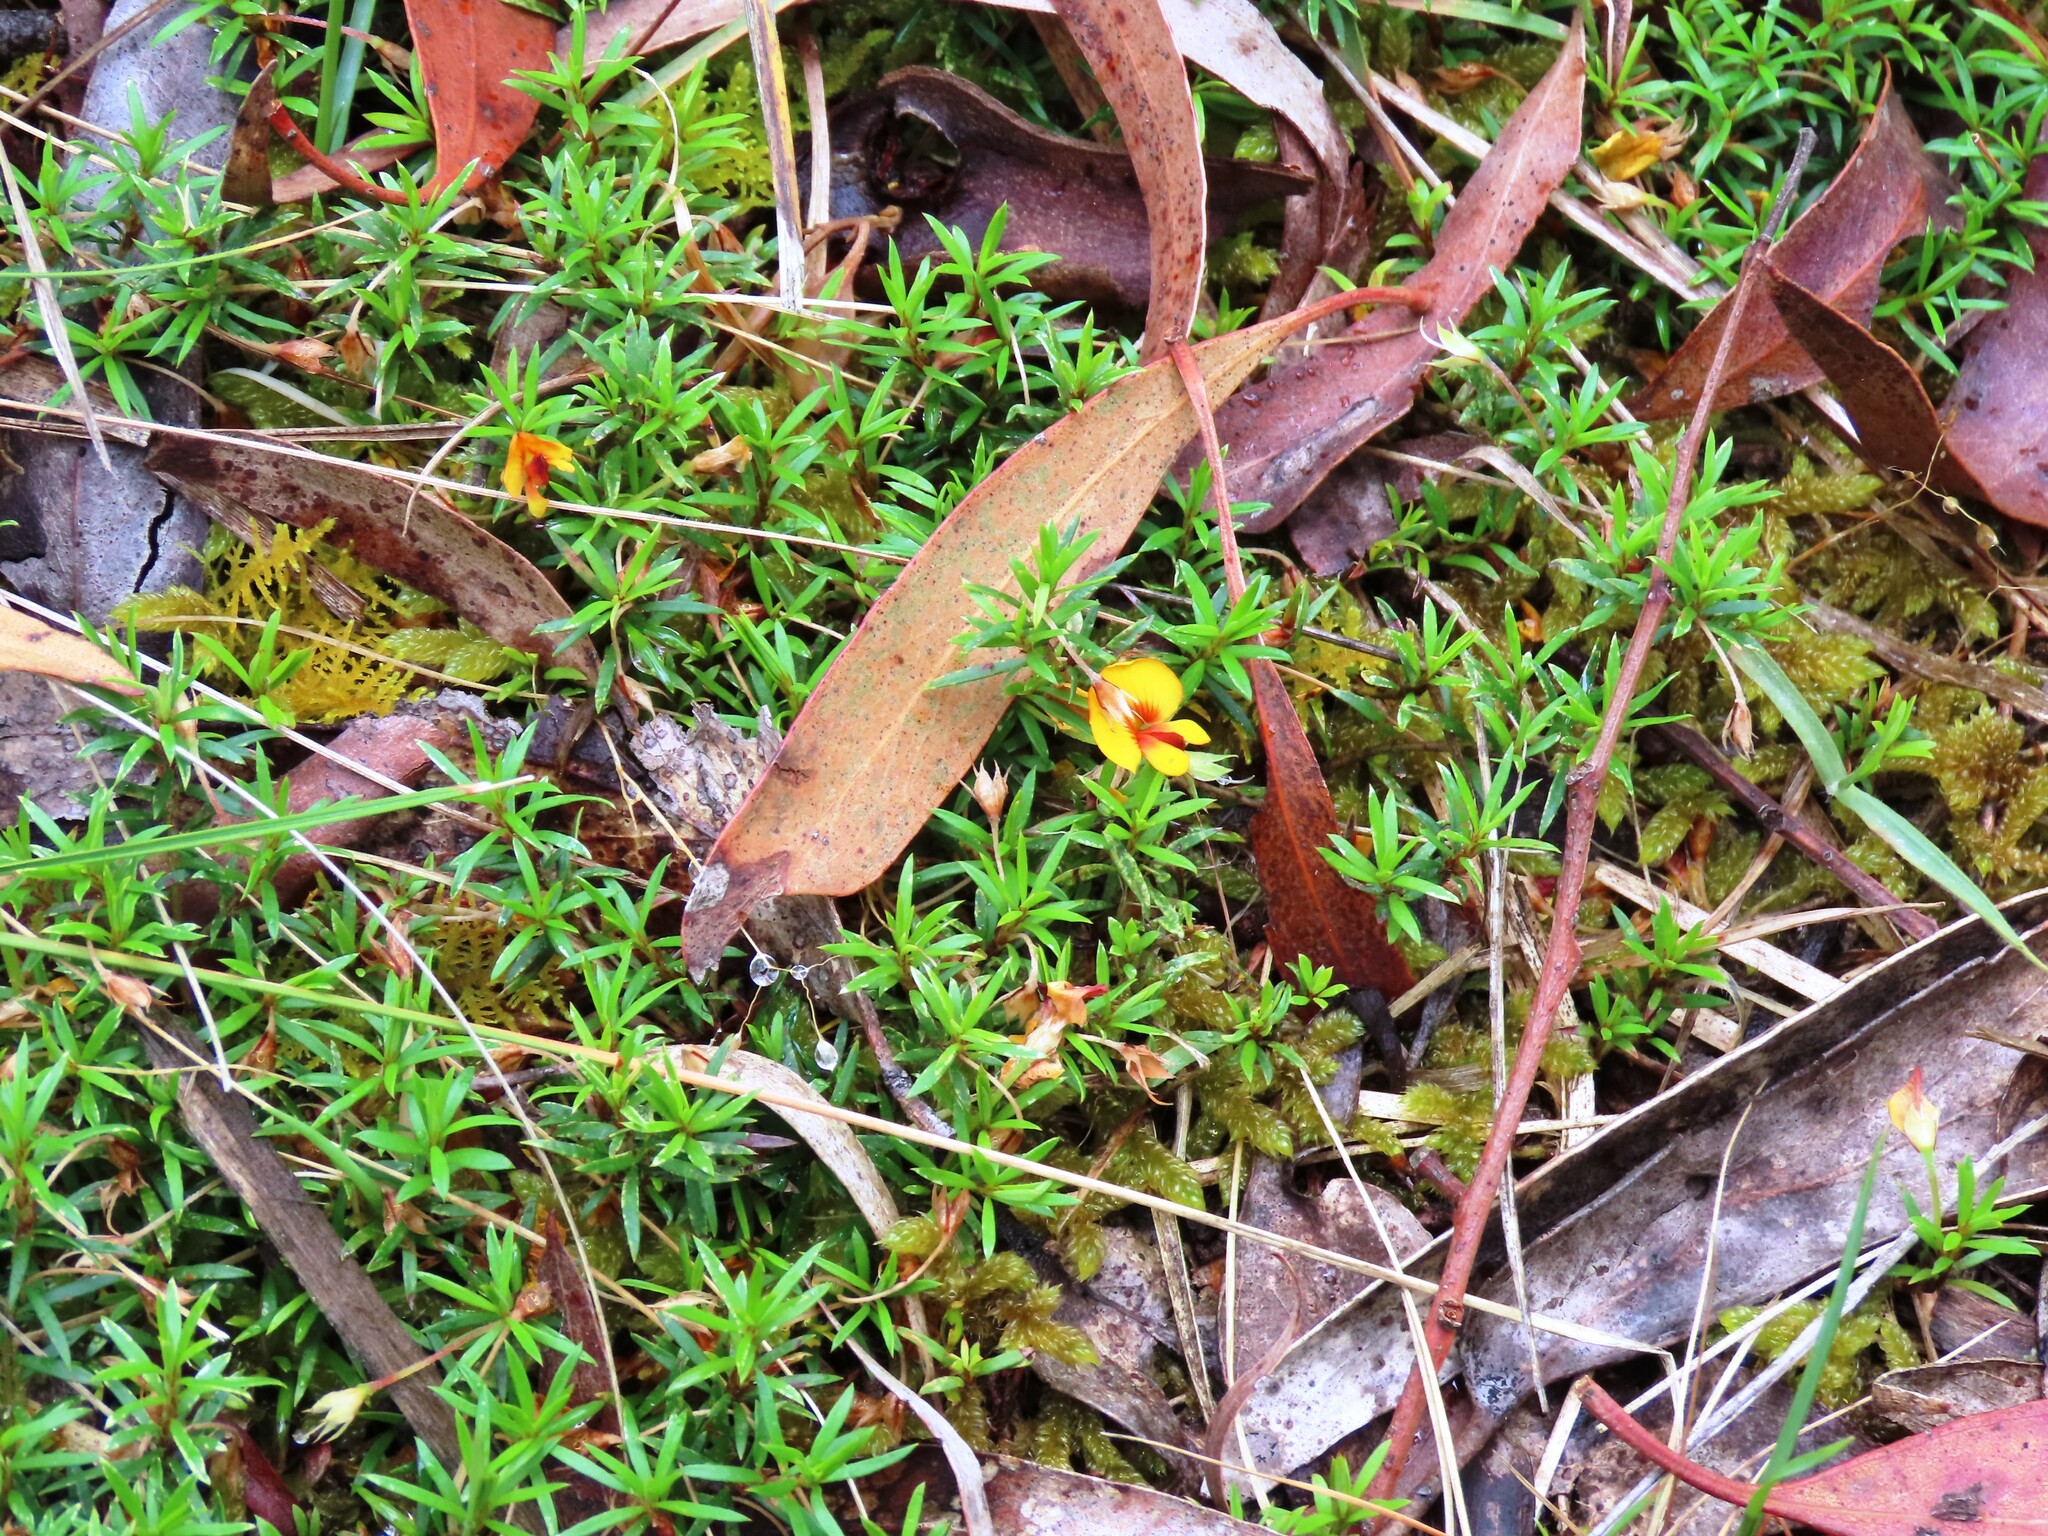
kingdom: Plantae
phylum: Tracheophyta
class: Magnoliopsida
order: Fabales
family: Fabaceae
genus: Pultenaea
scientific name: Pultenaea pedunculata
